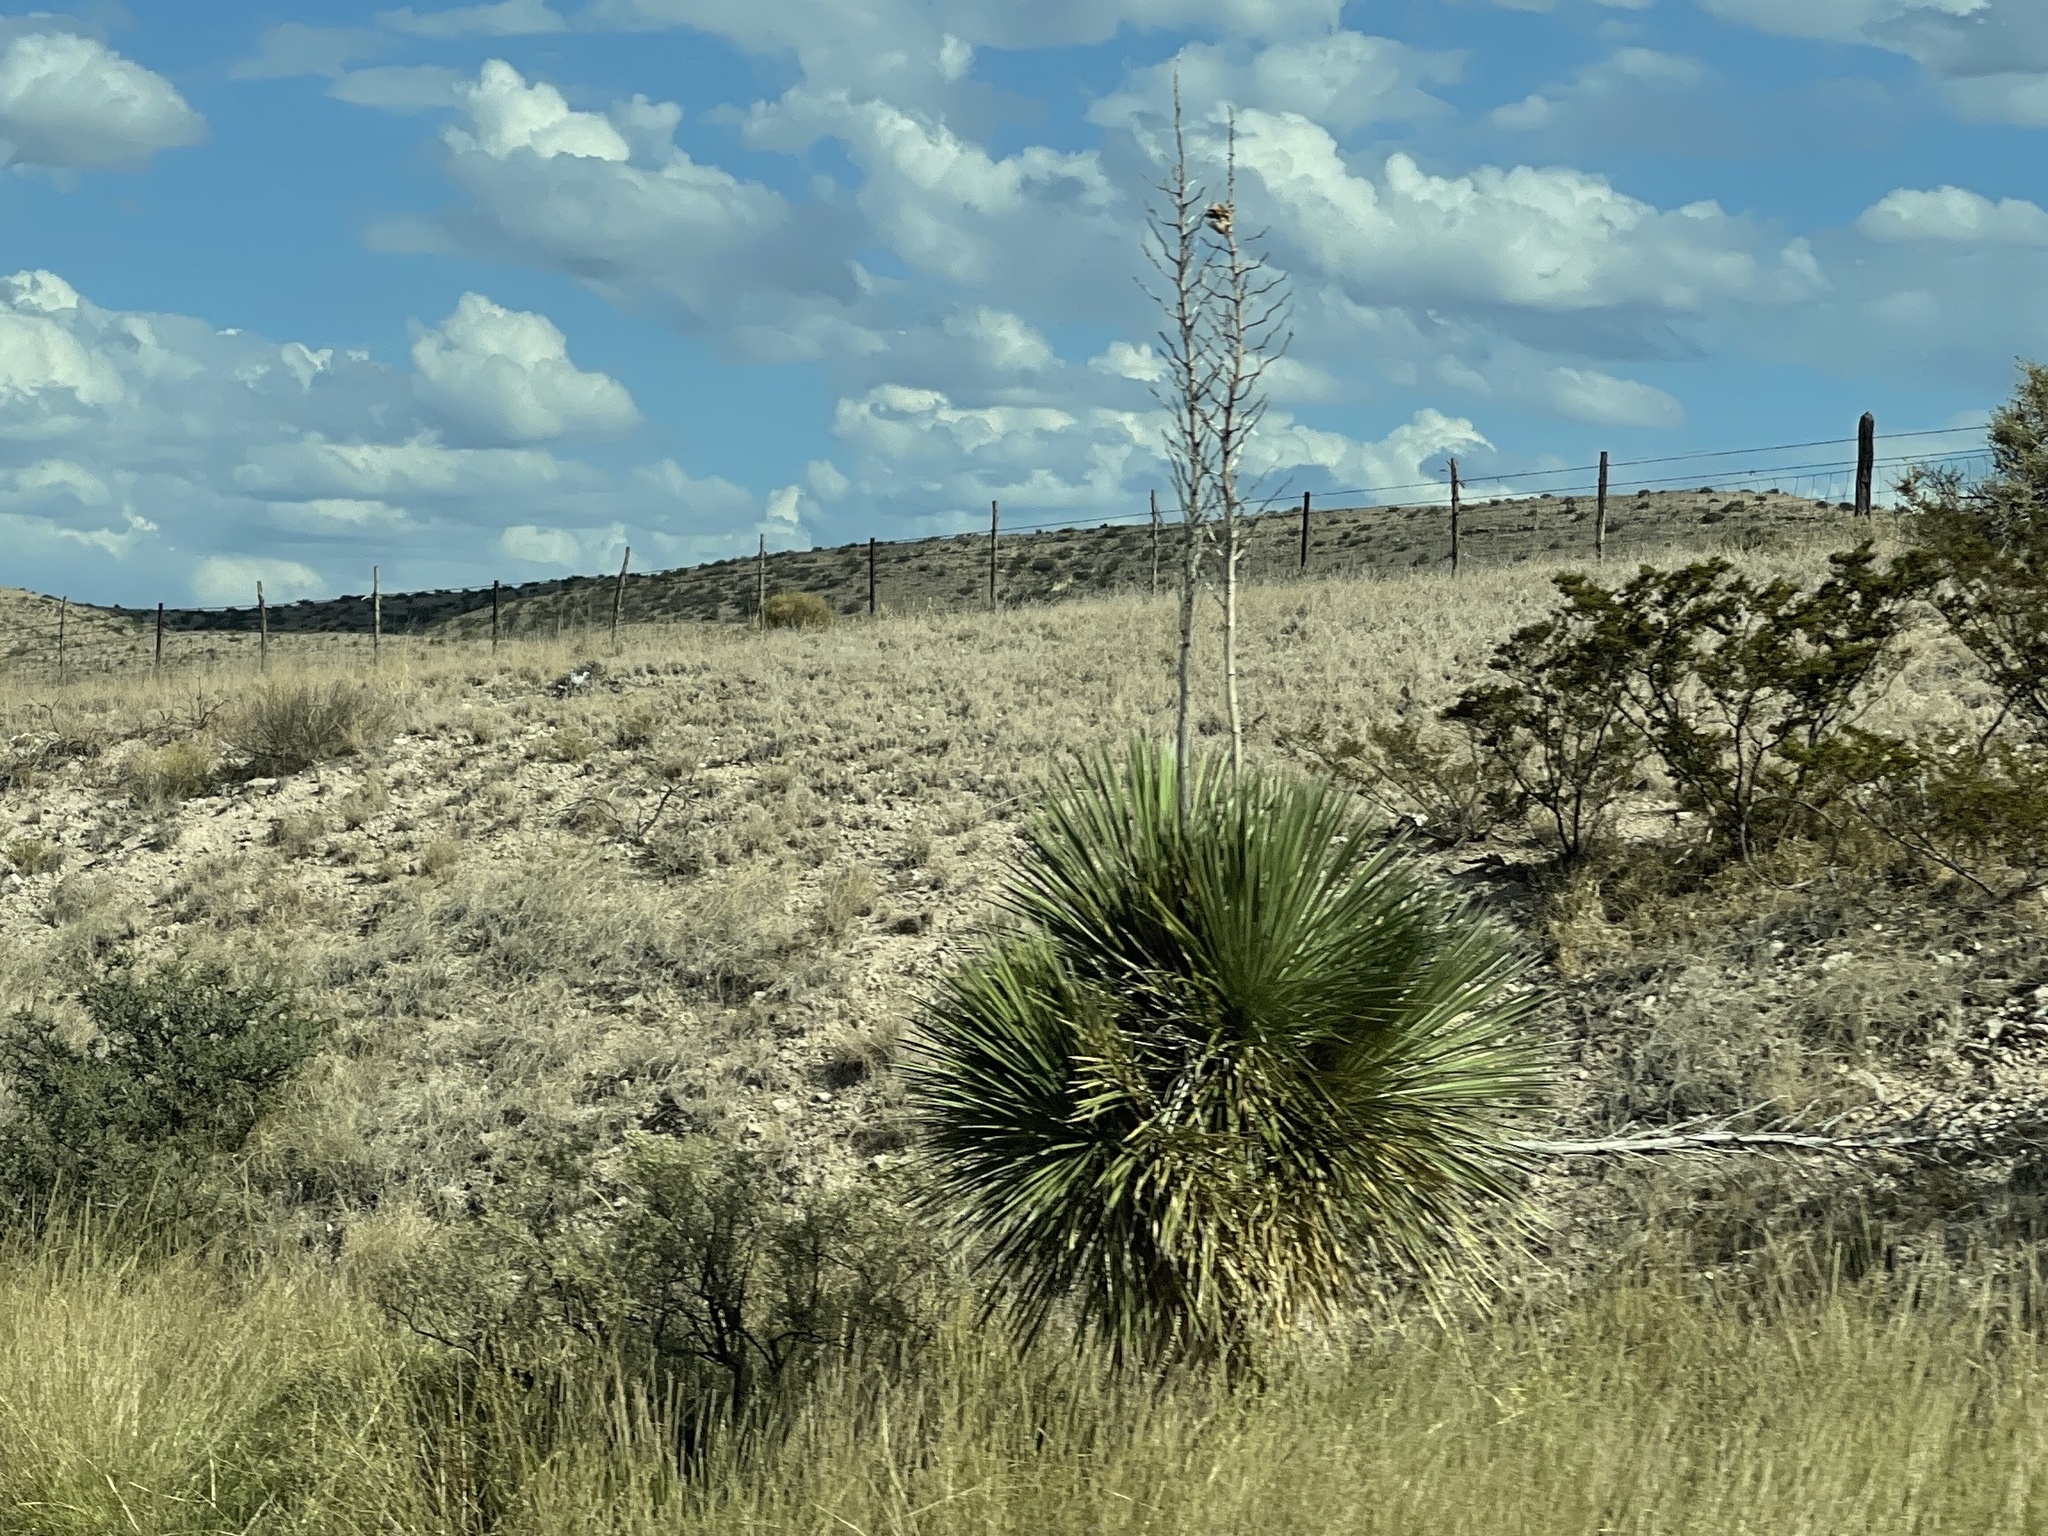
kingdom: Plantae
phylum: Tracheophyta
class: Liliopsida
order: Asparagales
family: Asparagaceae
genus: Yucca
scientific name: Yucca elata
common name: Palmella
